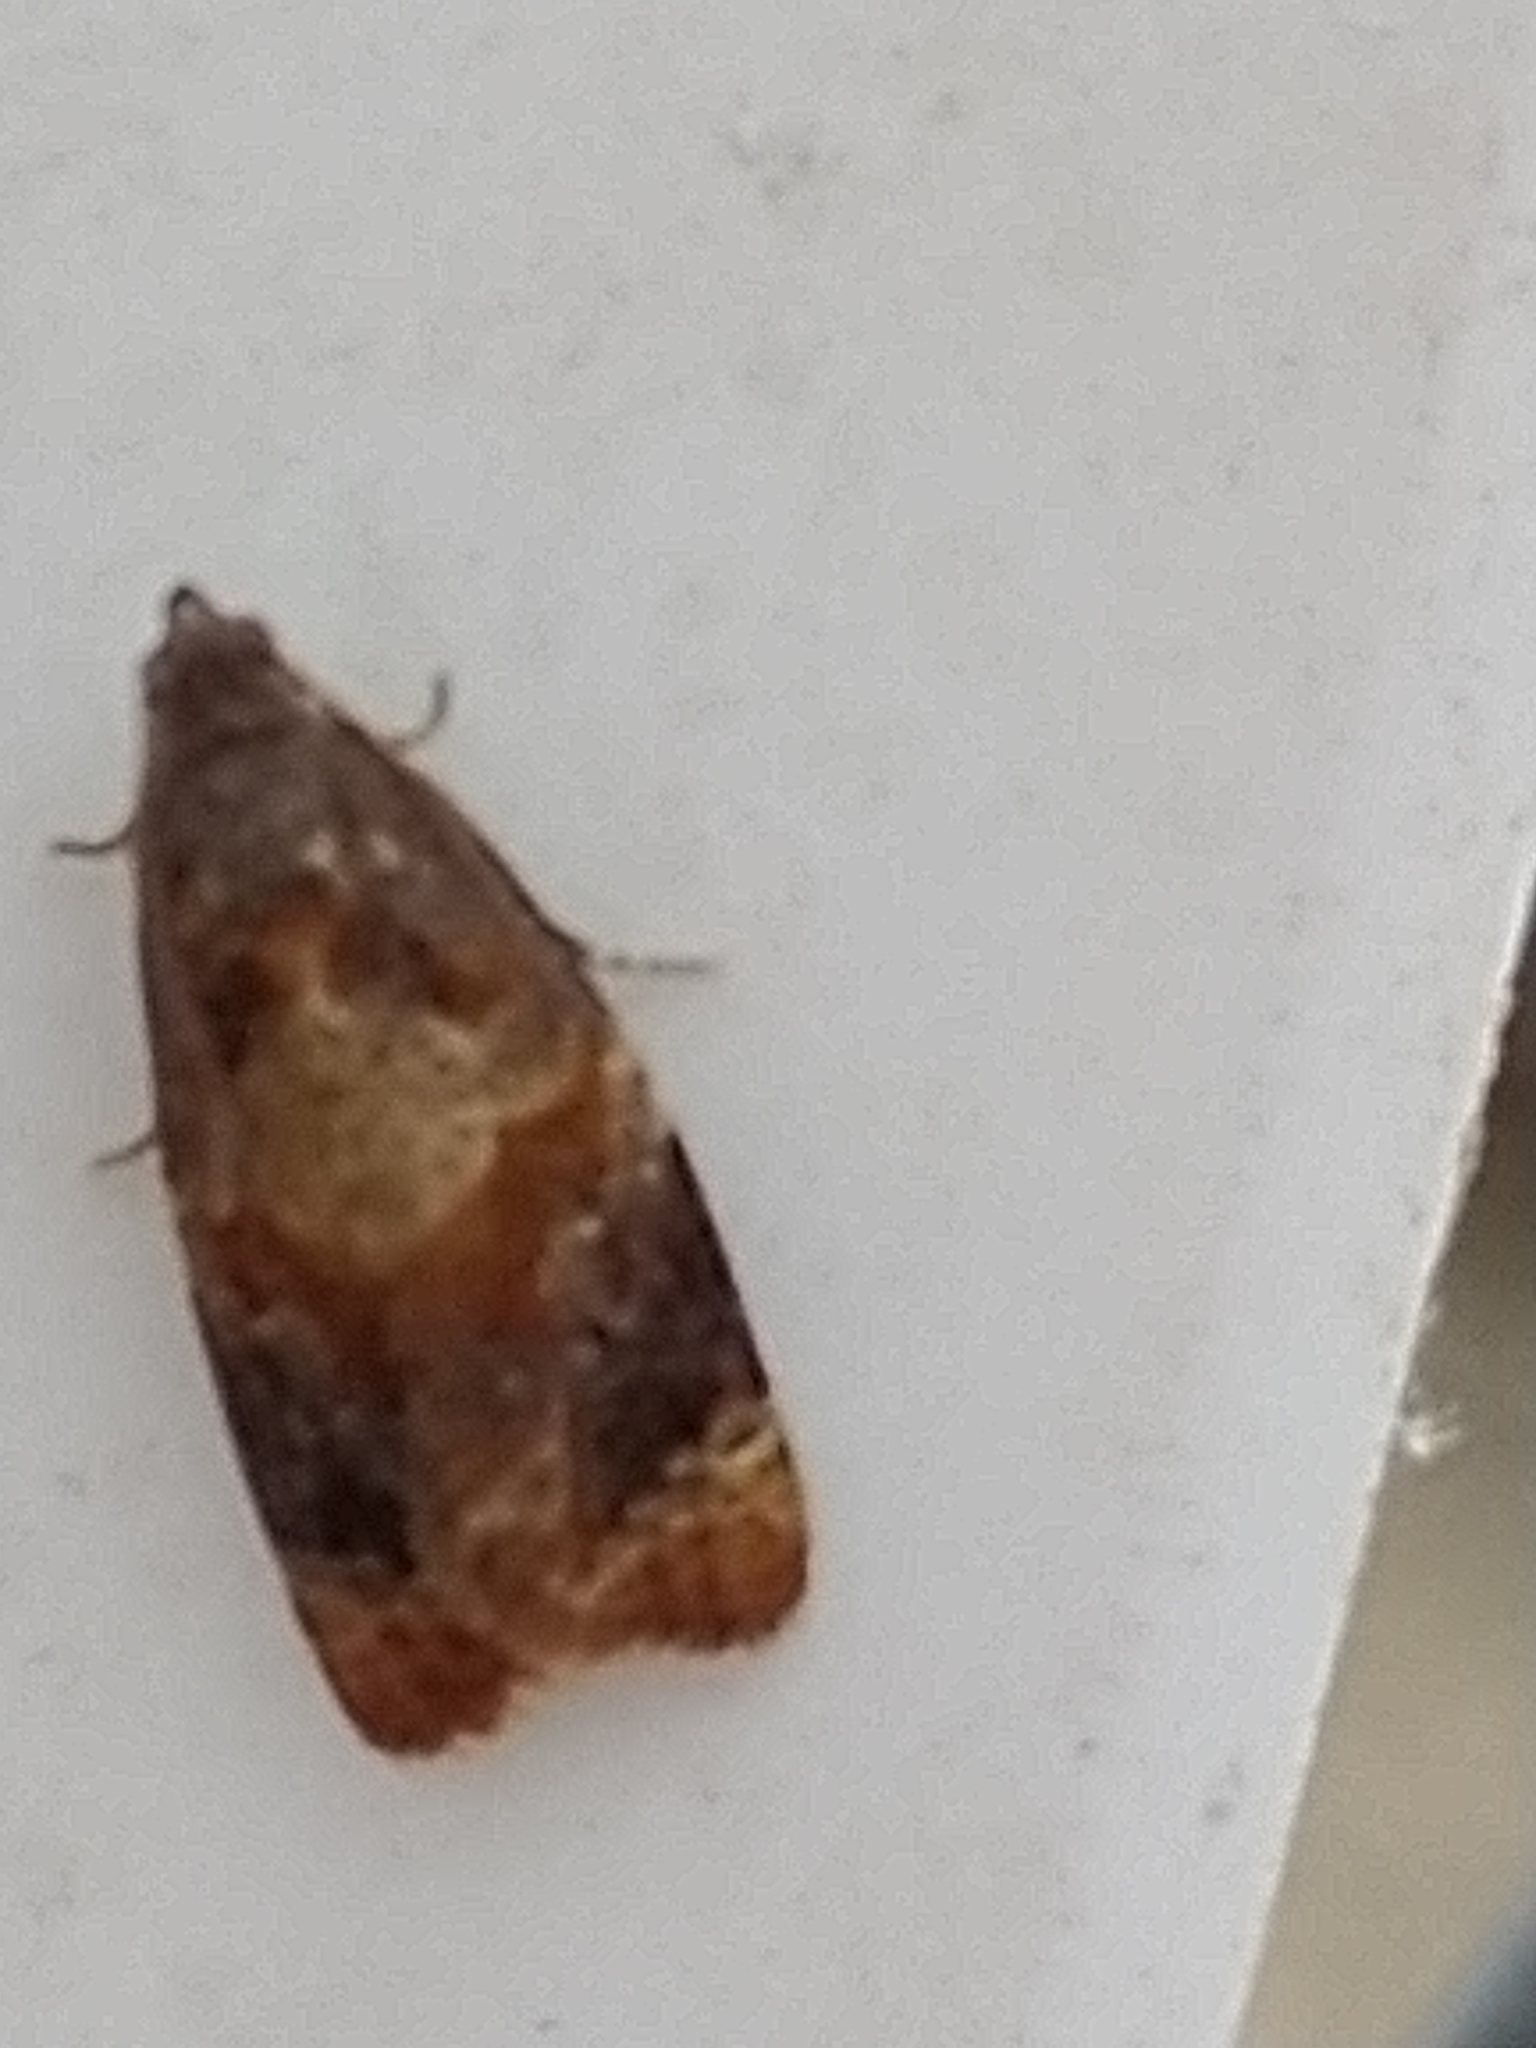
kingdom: Animalia
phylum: Arthropoda
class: Insecta
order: Lepidoptera
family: Tortricidae
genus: Ditula
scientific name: Ditula angustiorana
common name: Red-barred tortrix
